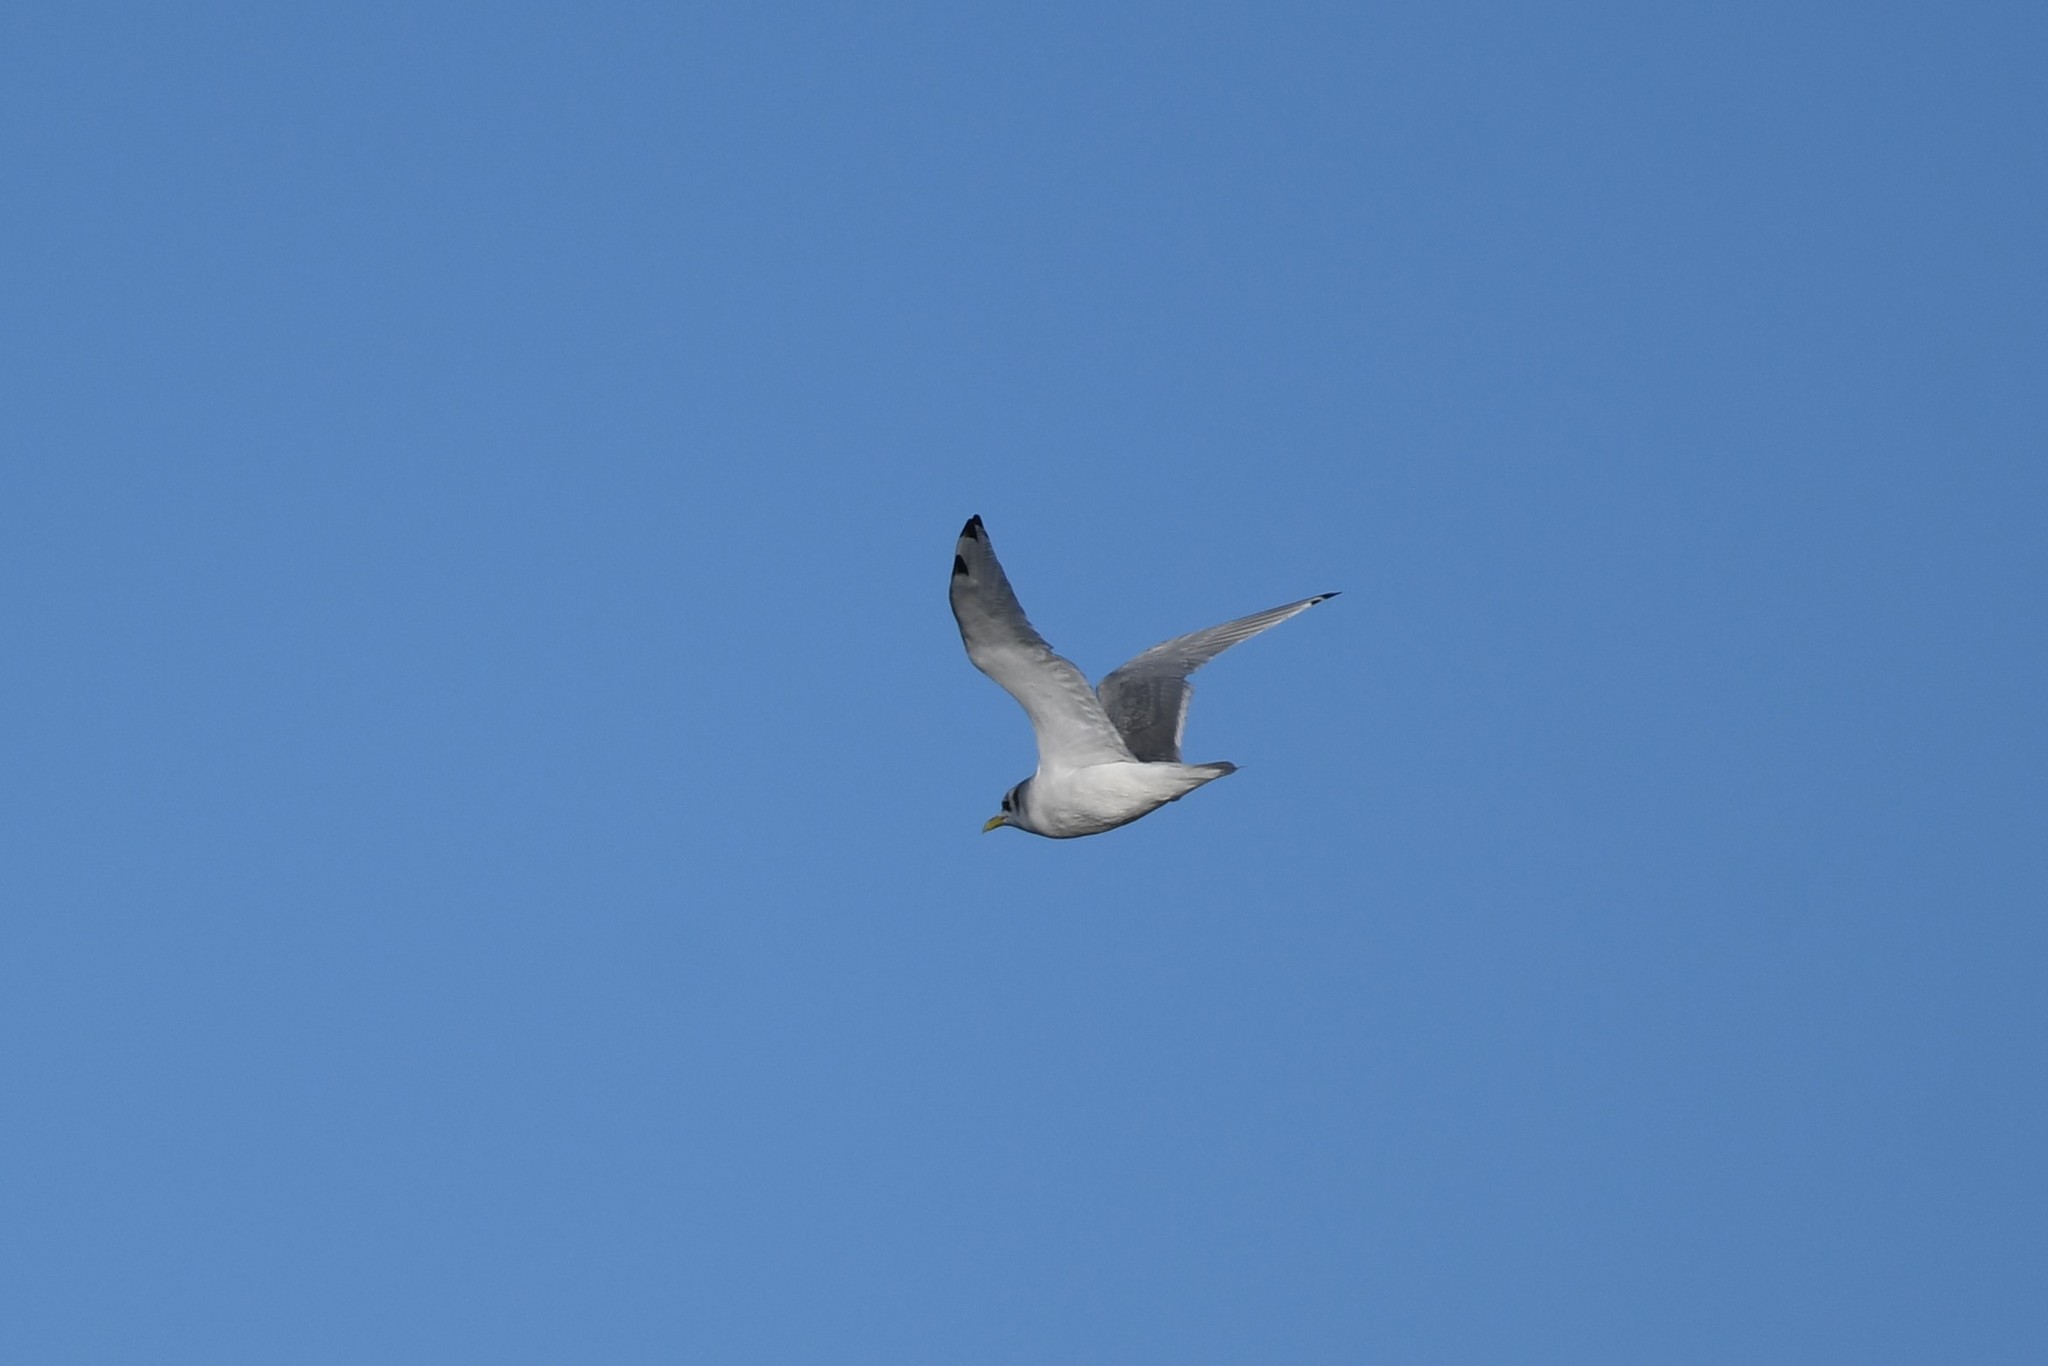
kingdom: Animalia
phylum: Chordata
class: Aves
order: Charadriiformes
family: Laridae
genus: Rissa
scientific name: Rissa tridactyla
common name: Black-legged kittiwake
